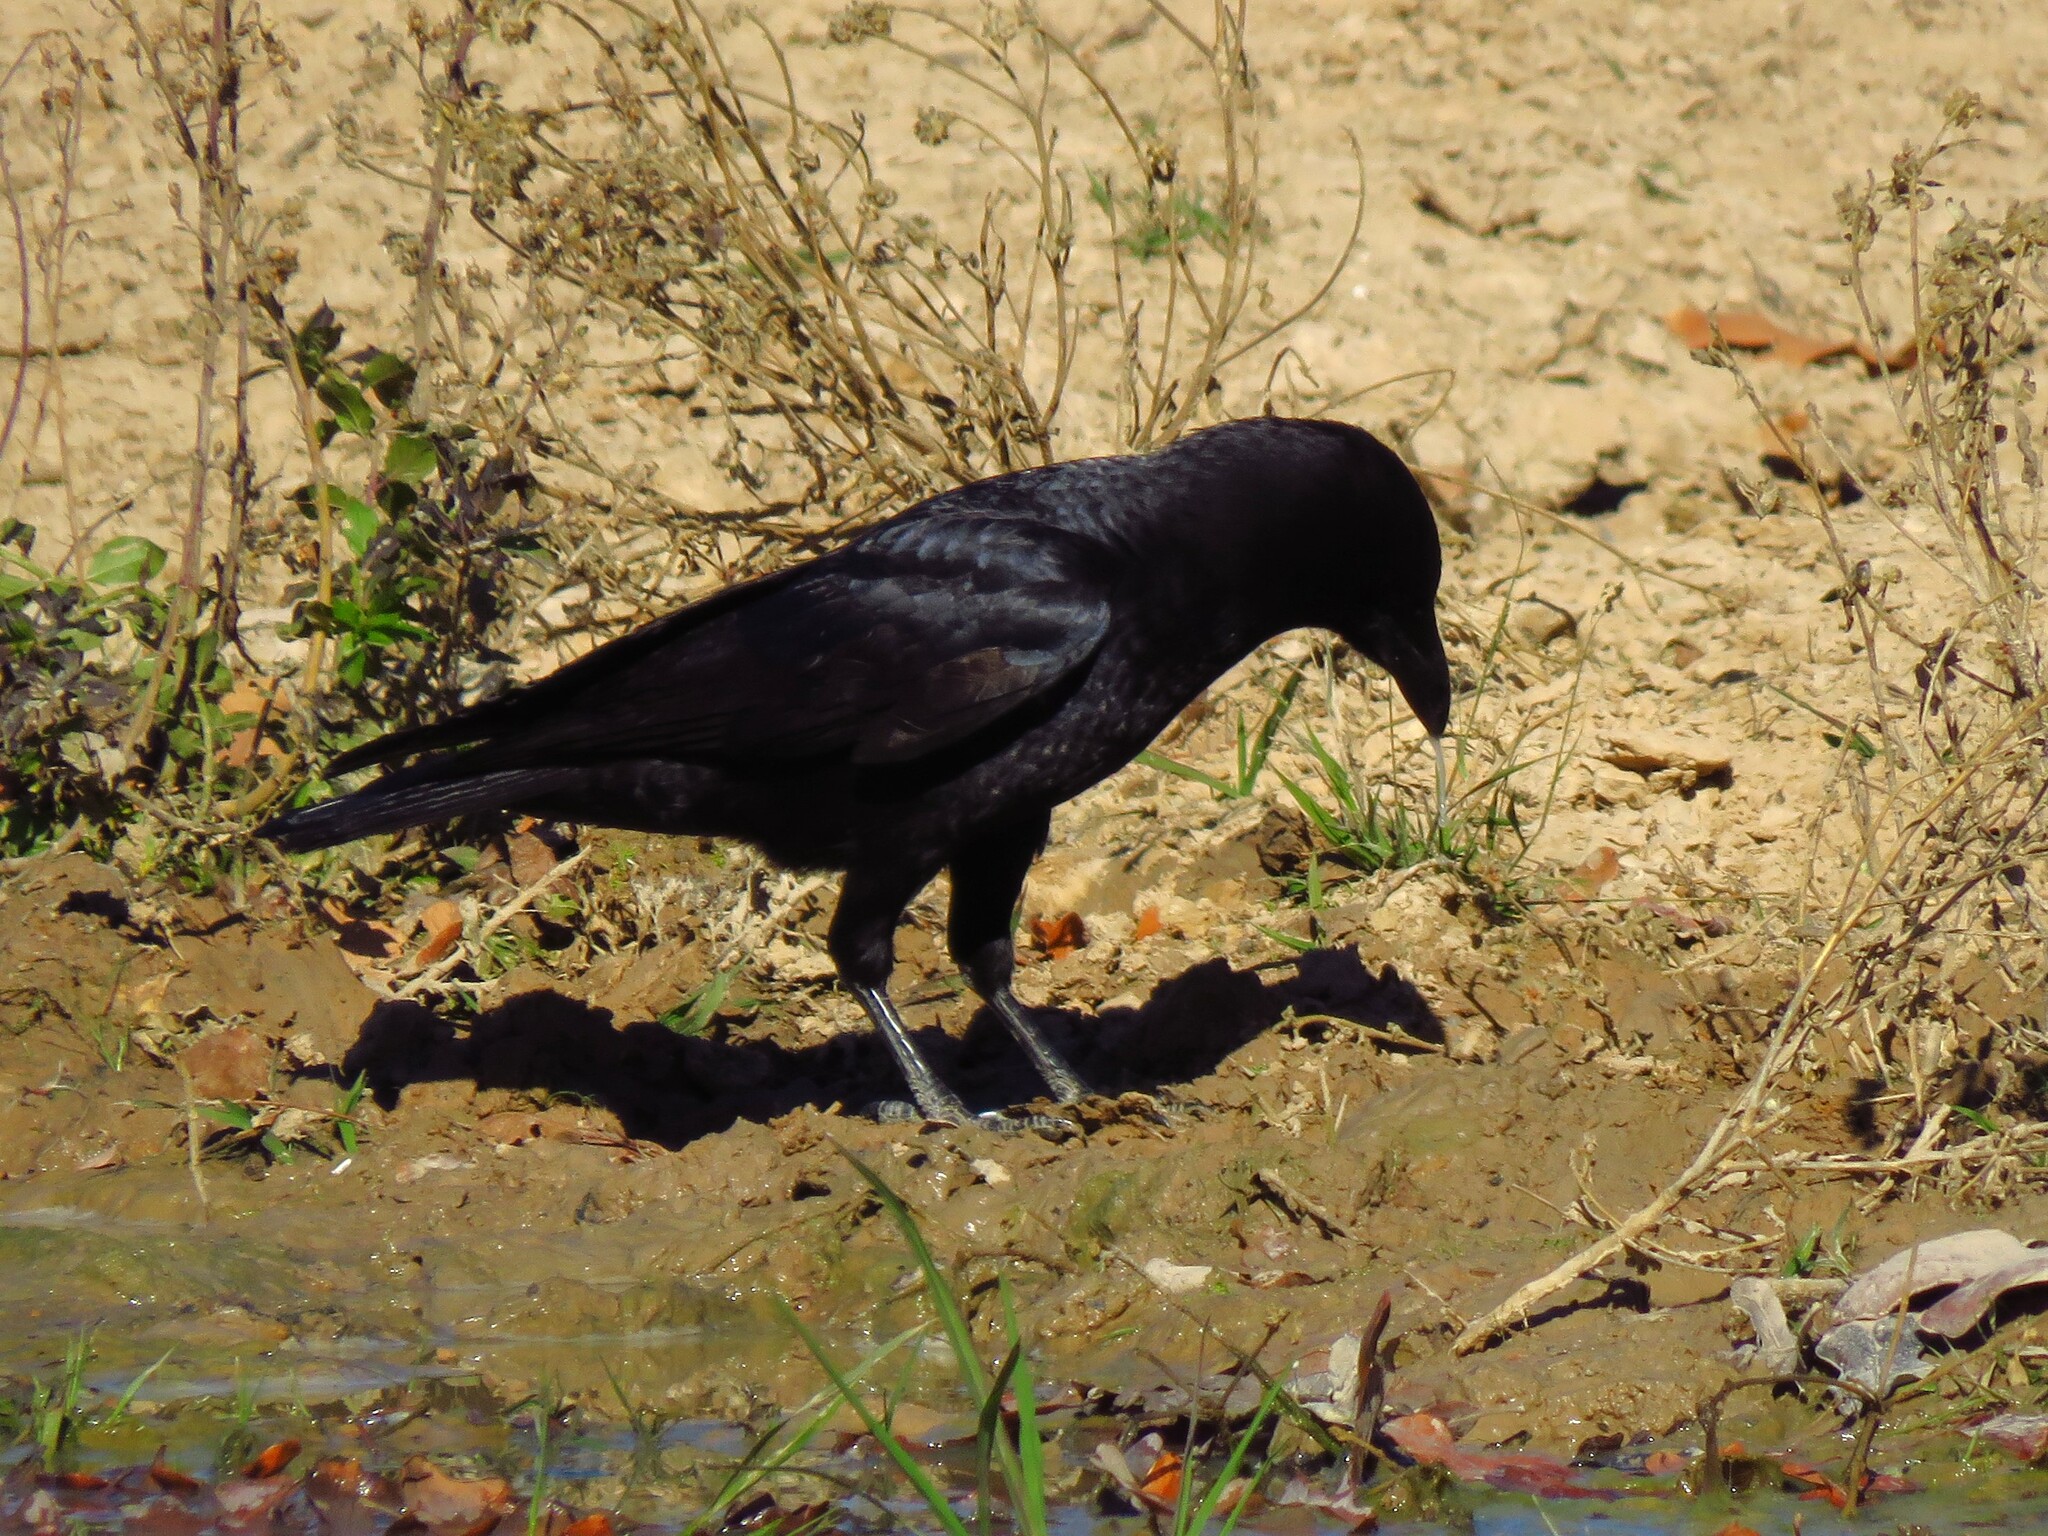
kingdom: Animalia
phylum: Chordata
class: Aves
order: Passeriformes
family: Corvidae
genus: Corvus
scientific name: Corvus brachyrhynchos
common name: American crow
